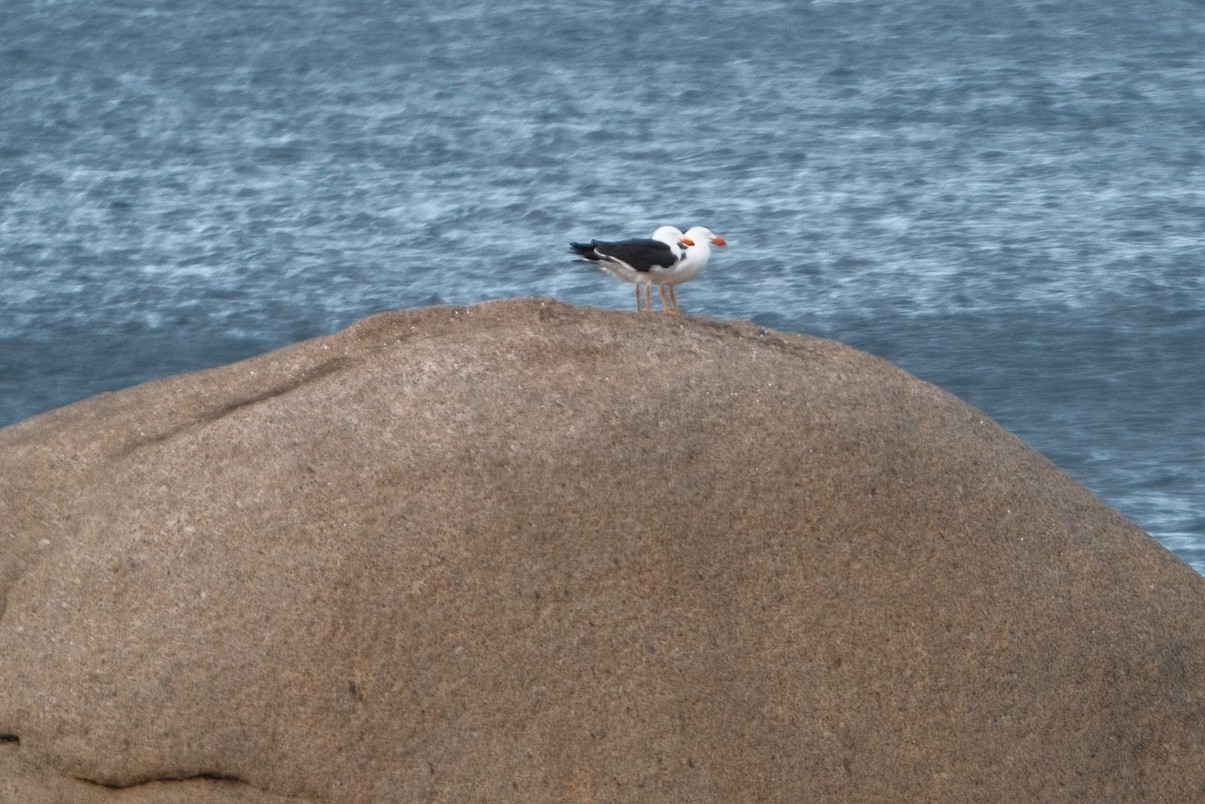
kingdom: Animalia
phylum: Chordata
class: Aves
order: Charadriiformes
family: Laridae
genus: Larus
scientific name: Larus pacificus
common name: Pacific gull
